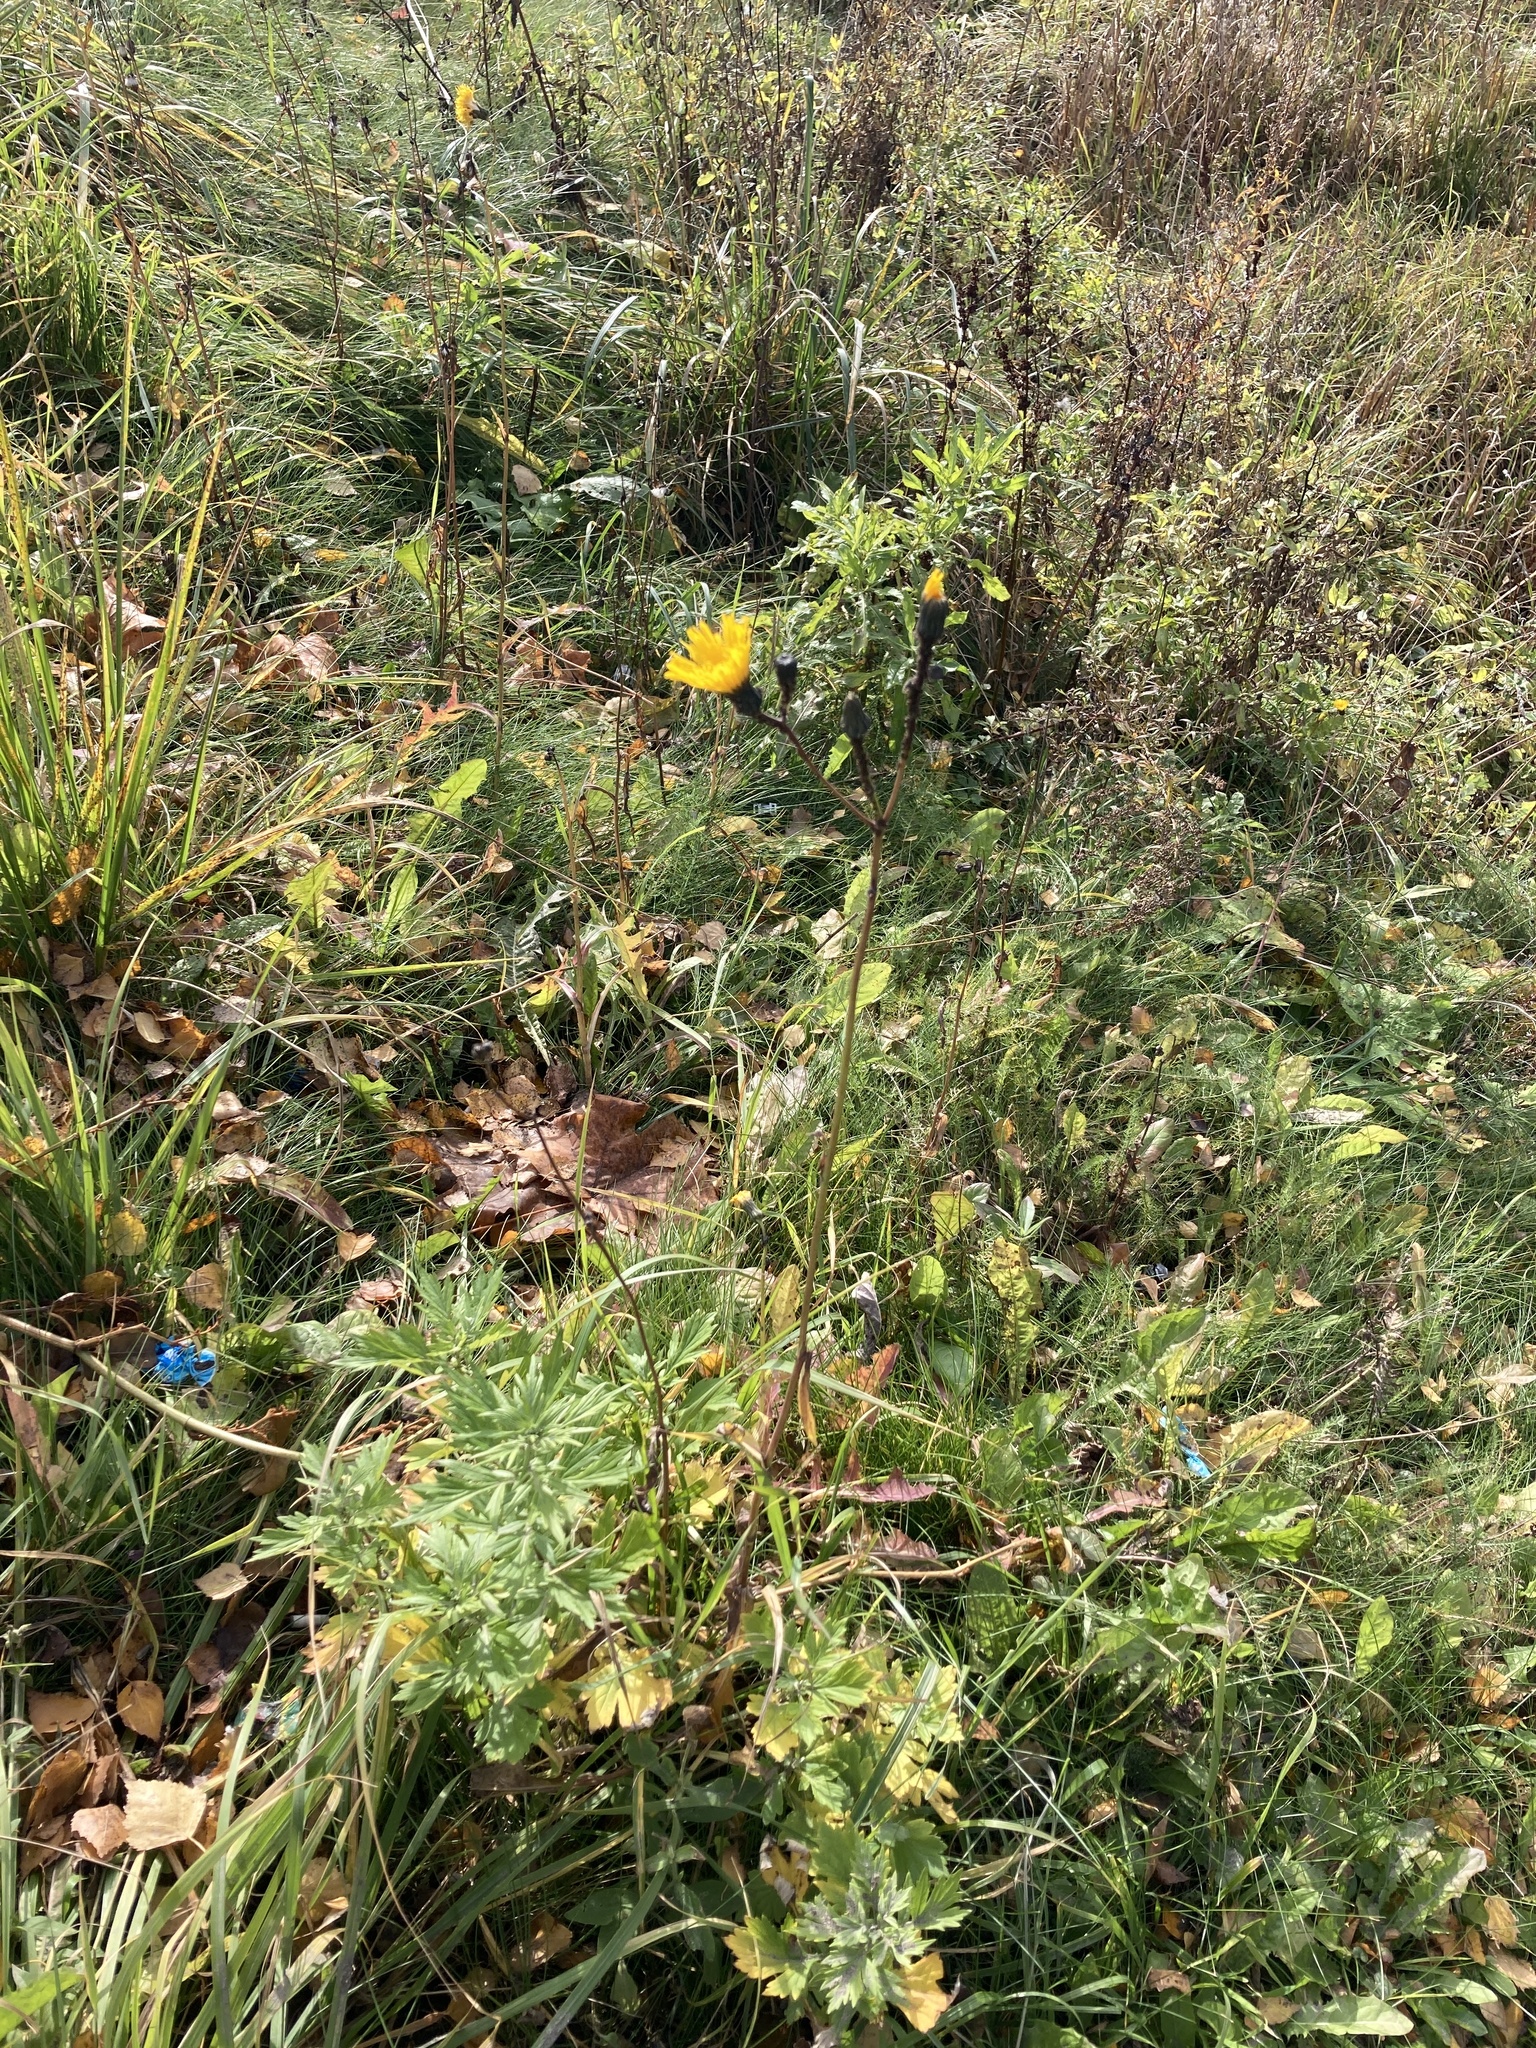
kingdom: Plantae
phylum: Tracheophyta
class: Magnoliopsida
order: Asterales
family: Asteraceae
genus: Sonchus
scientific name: Sonchus arvensis
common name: Perennial sow-thistle
